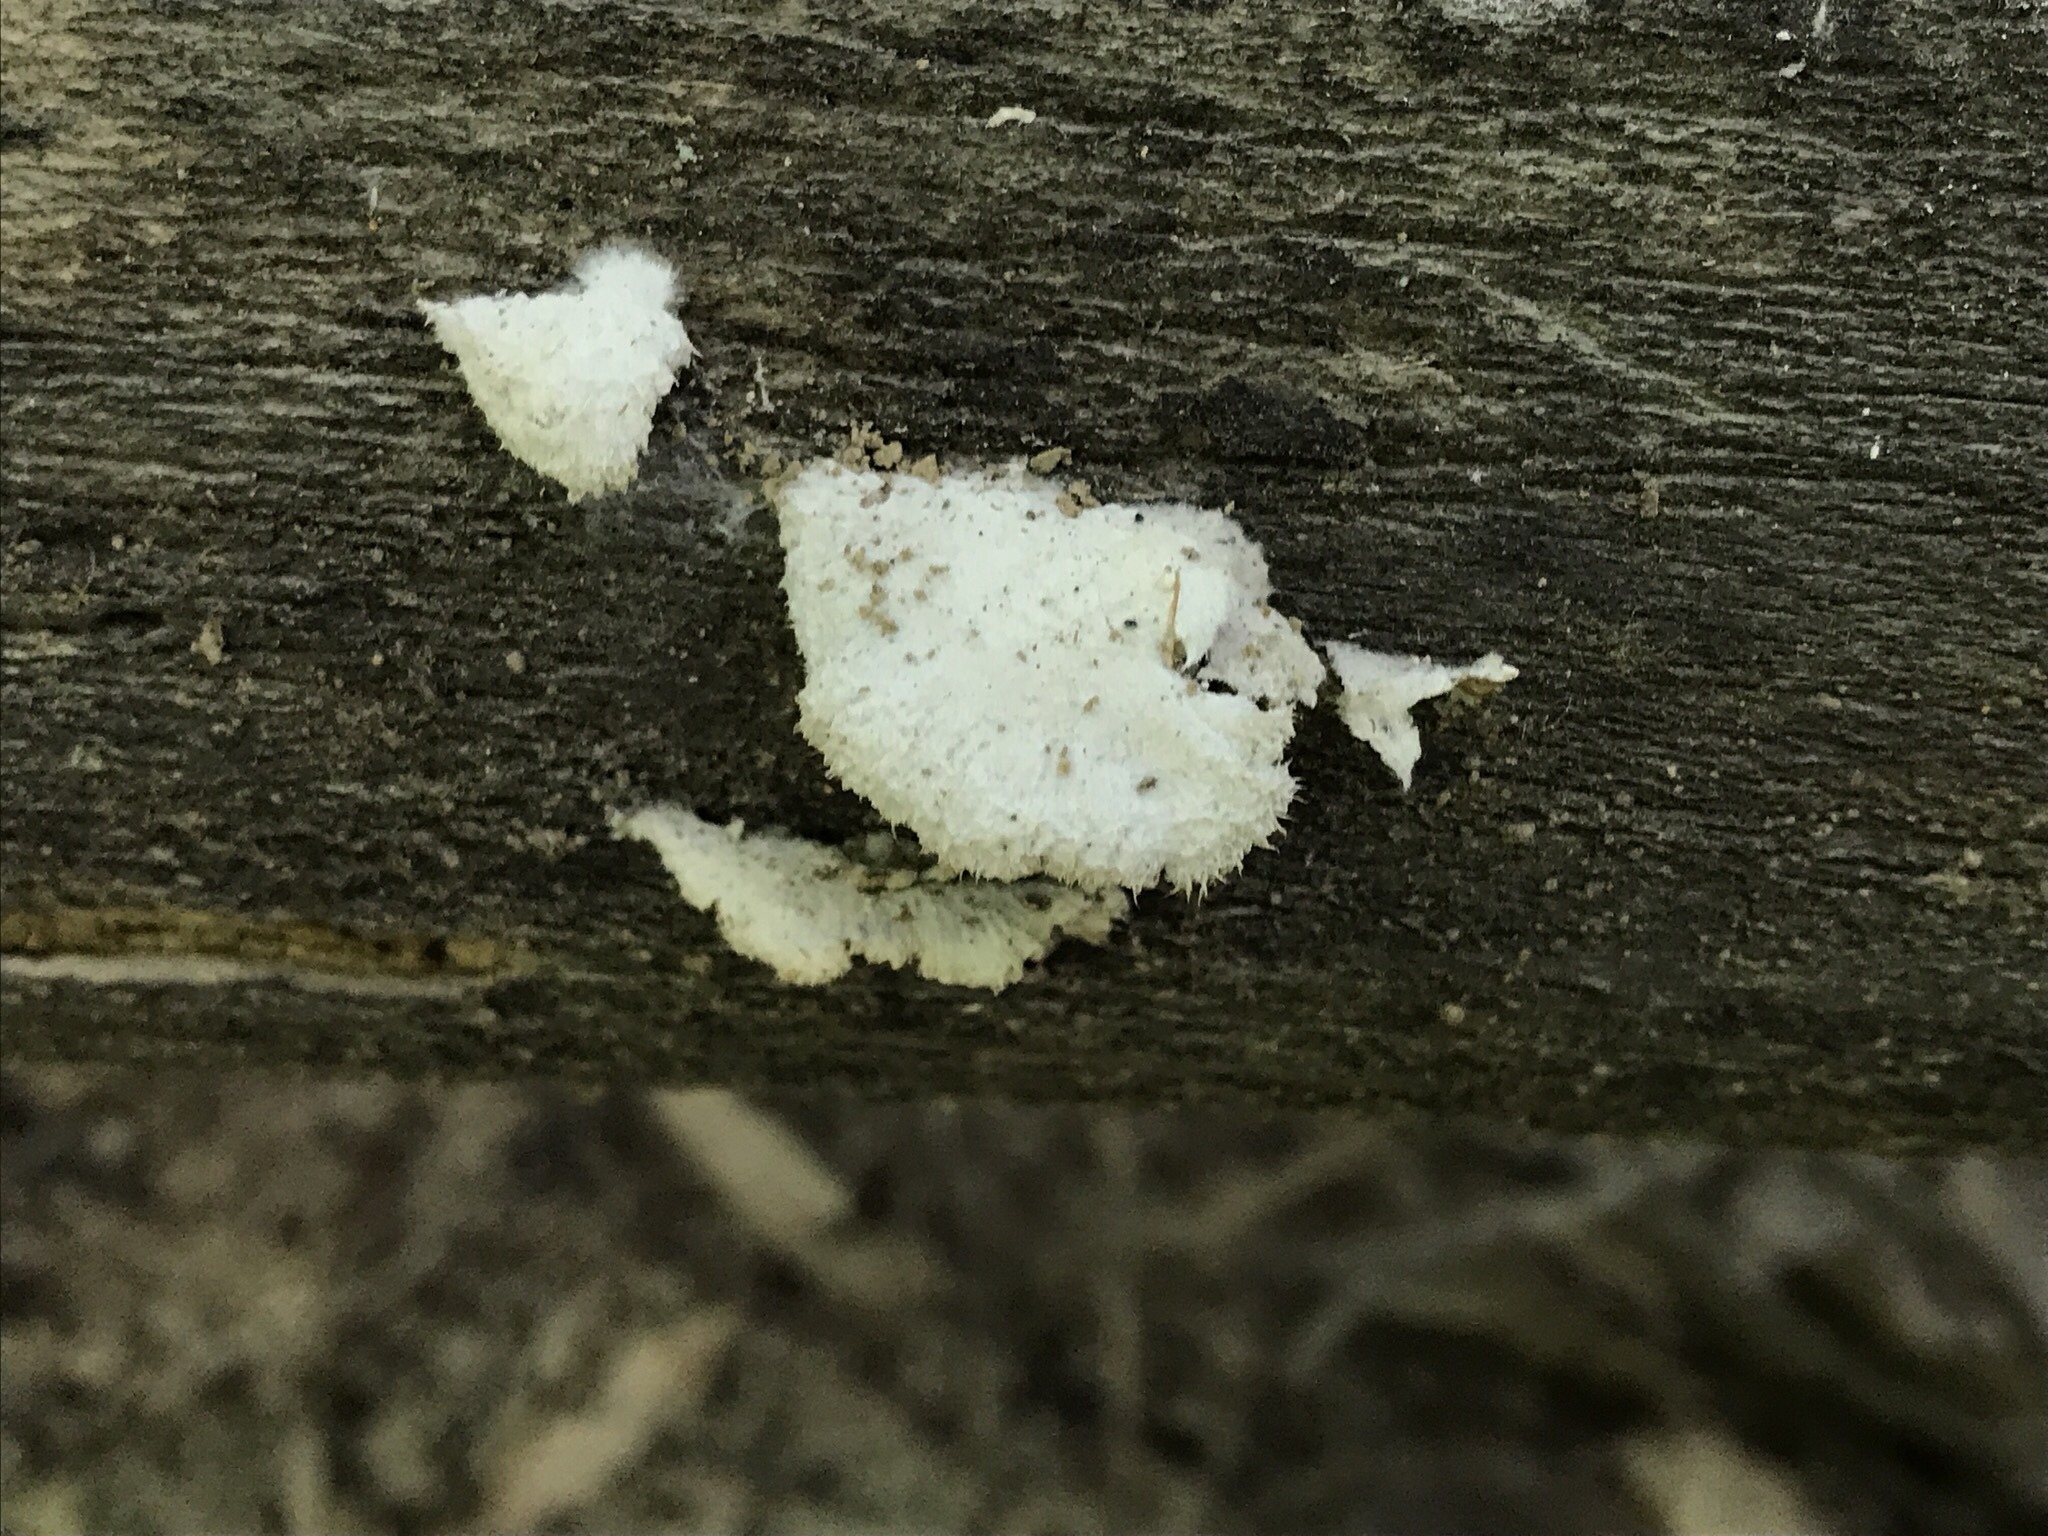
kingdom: Fungi
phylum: Basidiomycota
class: Agaricomycetes
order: Agaricales
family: Schizophyllaceae
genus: Schizophyllum
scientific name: Schizophyllum commune
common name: Common porecrust
